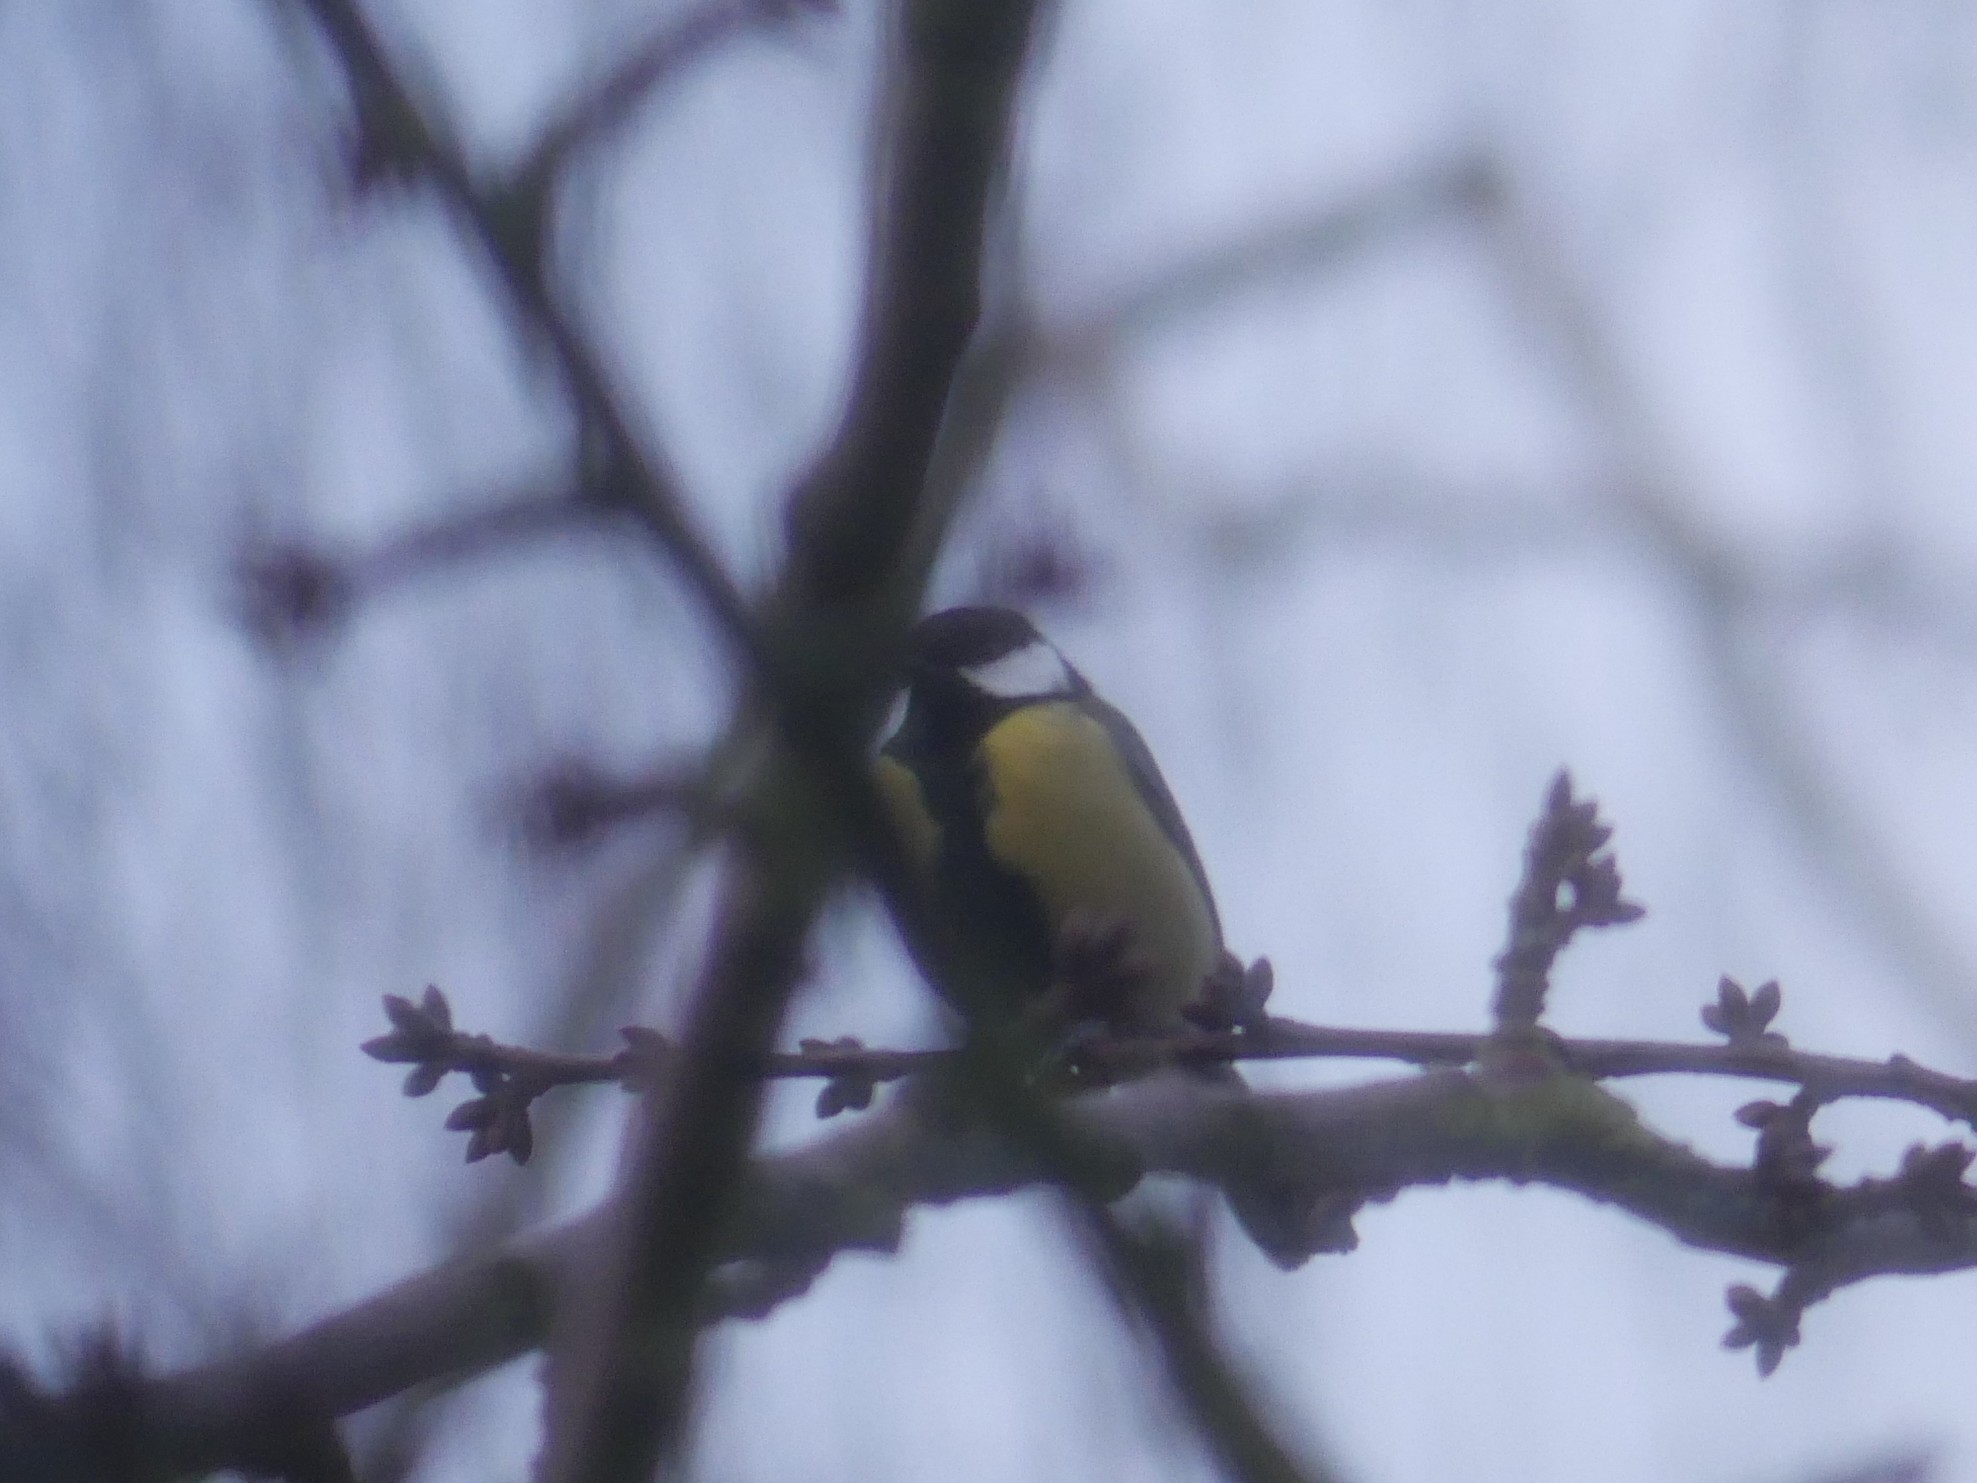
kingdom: Animalia
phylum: Chordata
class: Aves
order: Passeriformes
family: Paridae
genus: Parus
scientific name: Parus major
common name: Great tit
